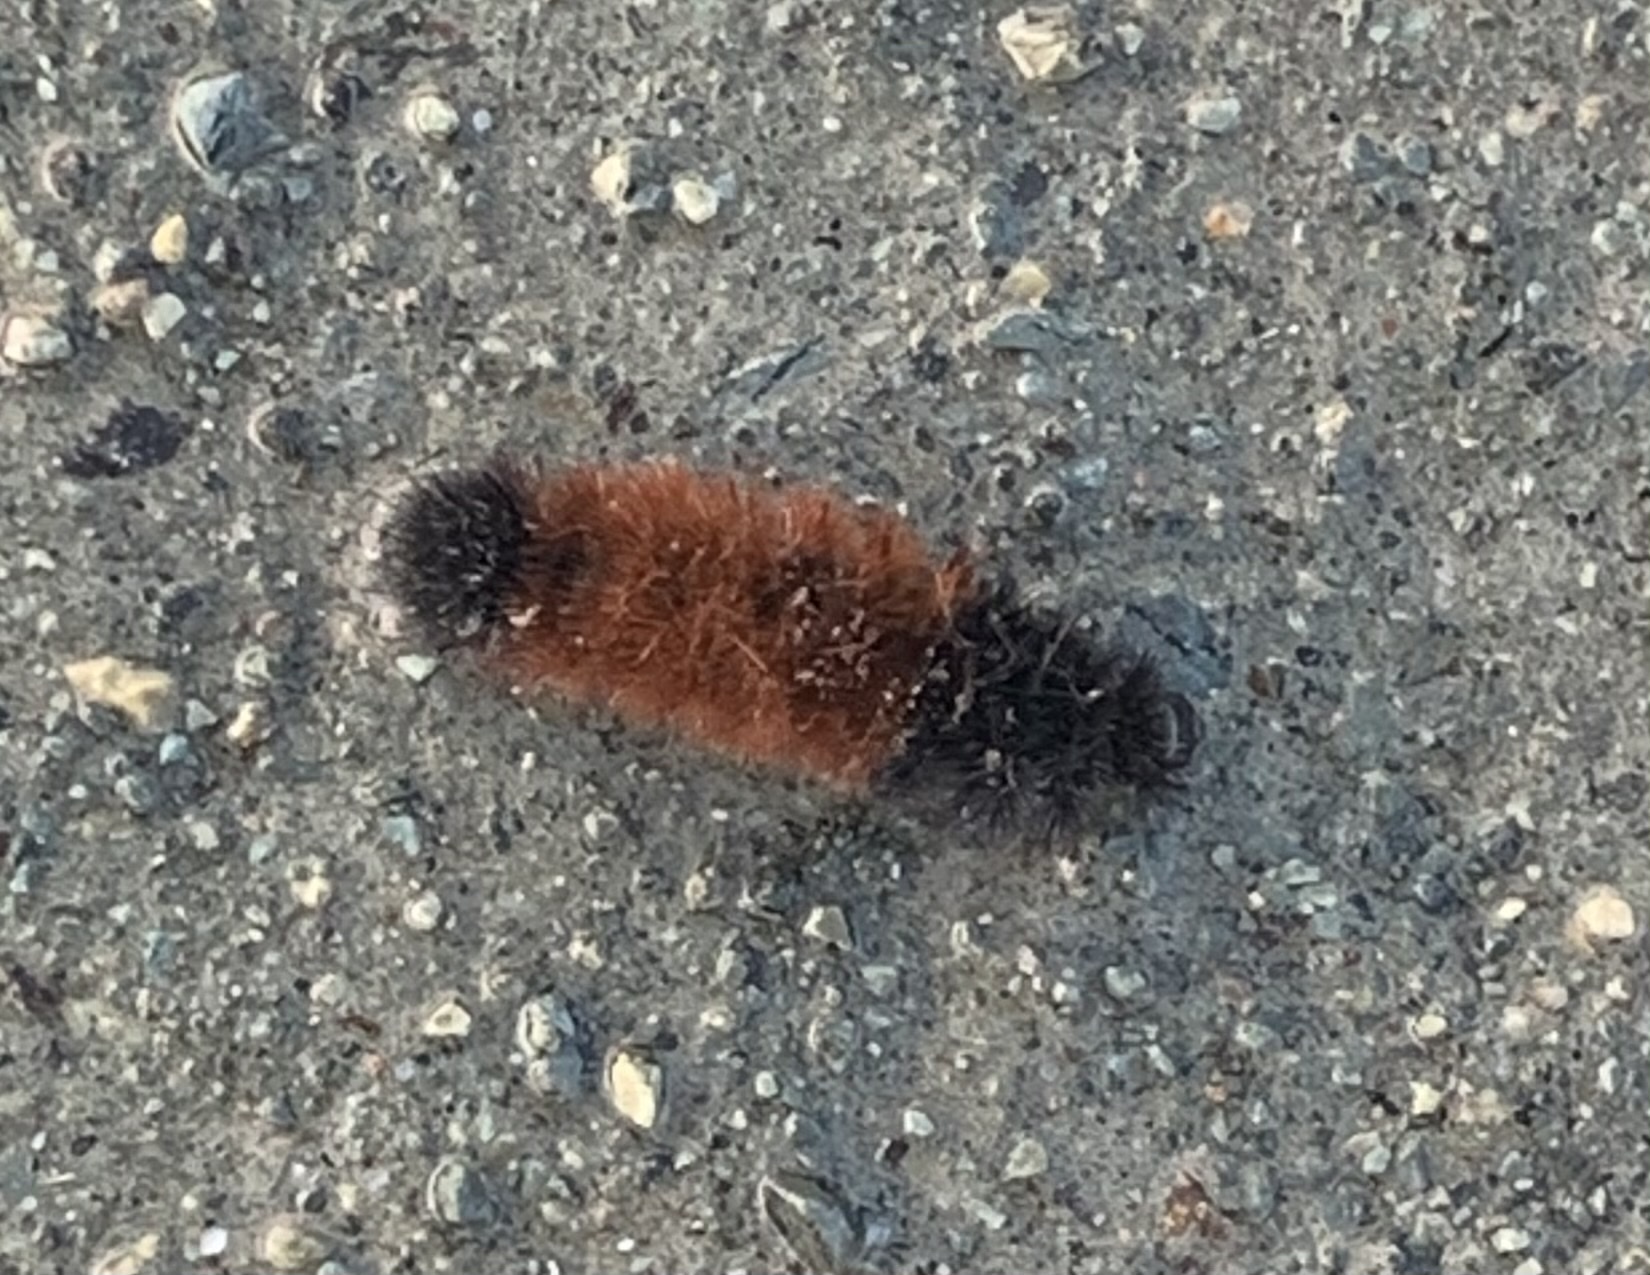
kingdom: Animalia
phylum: Arthropoda
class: Insecta
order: Lepidoptera
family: Erebidae
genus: Pyrrharctia
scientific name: Pyrrharctia isabella
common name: Isabella tiger moth
